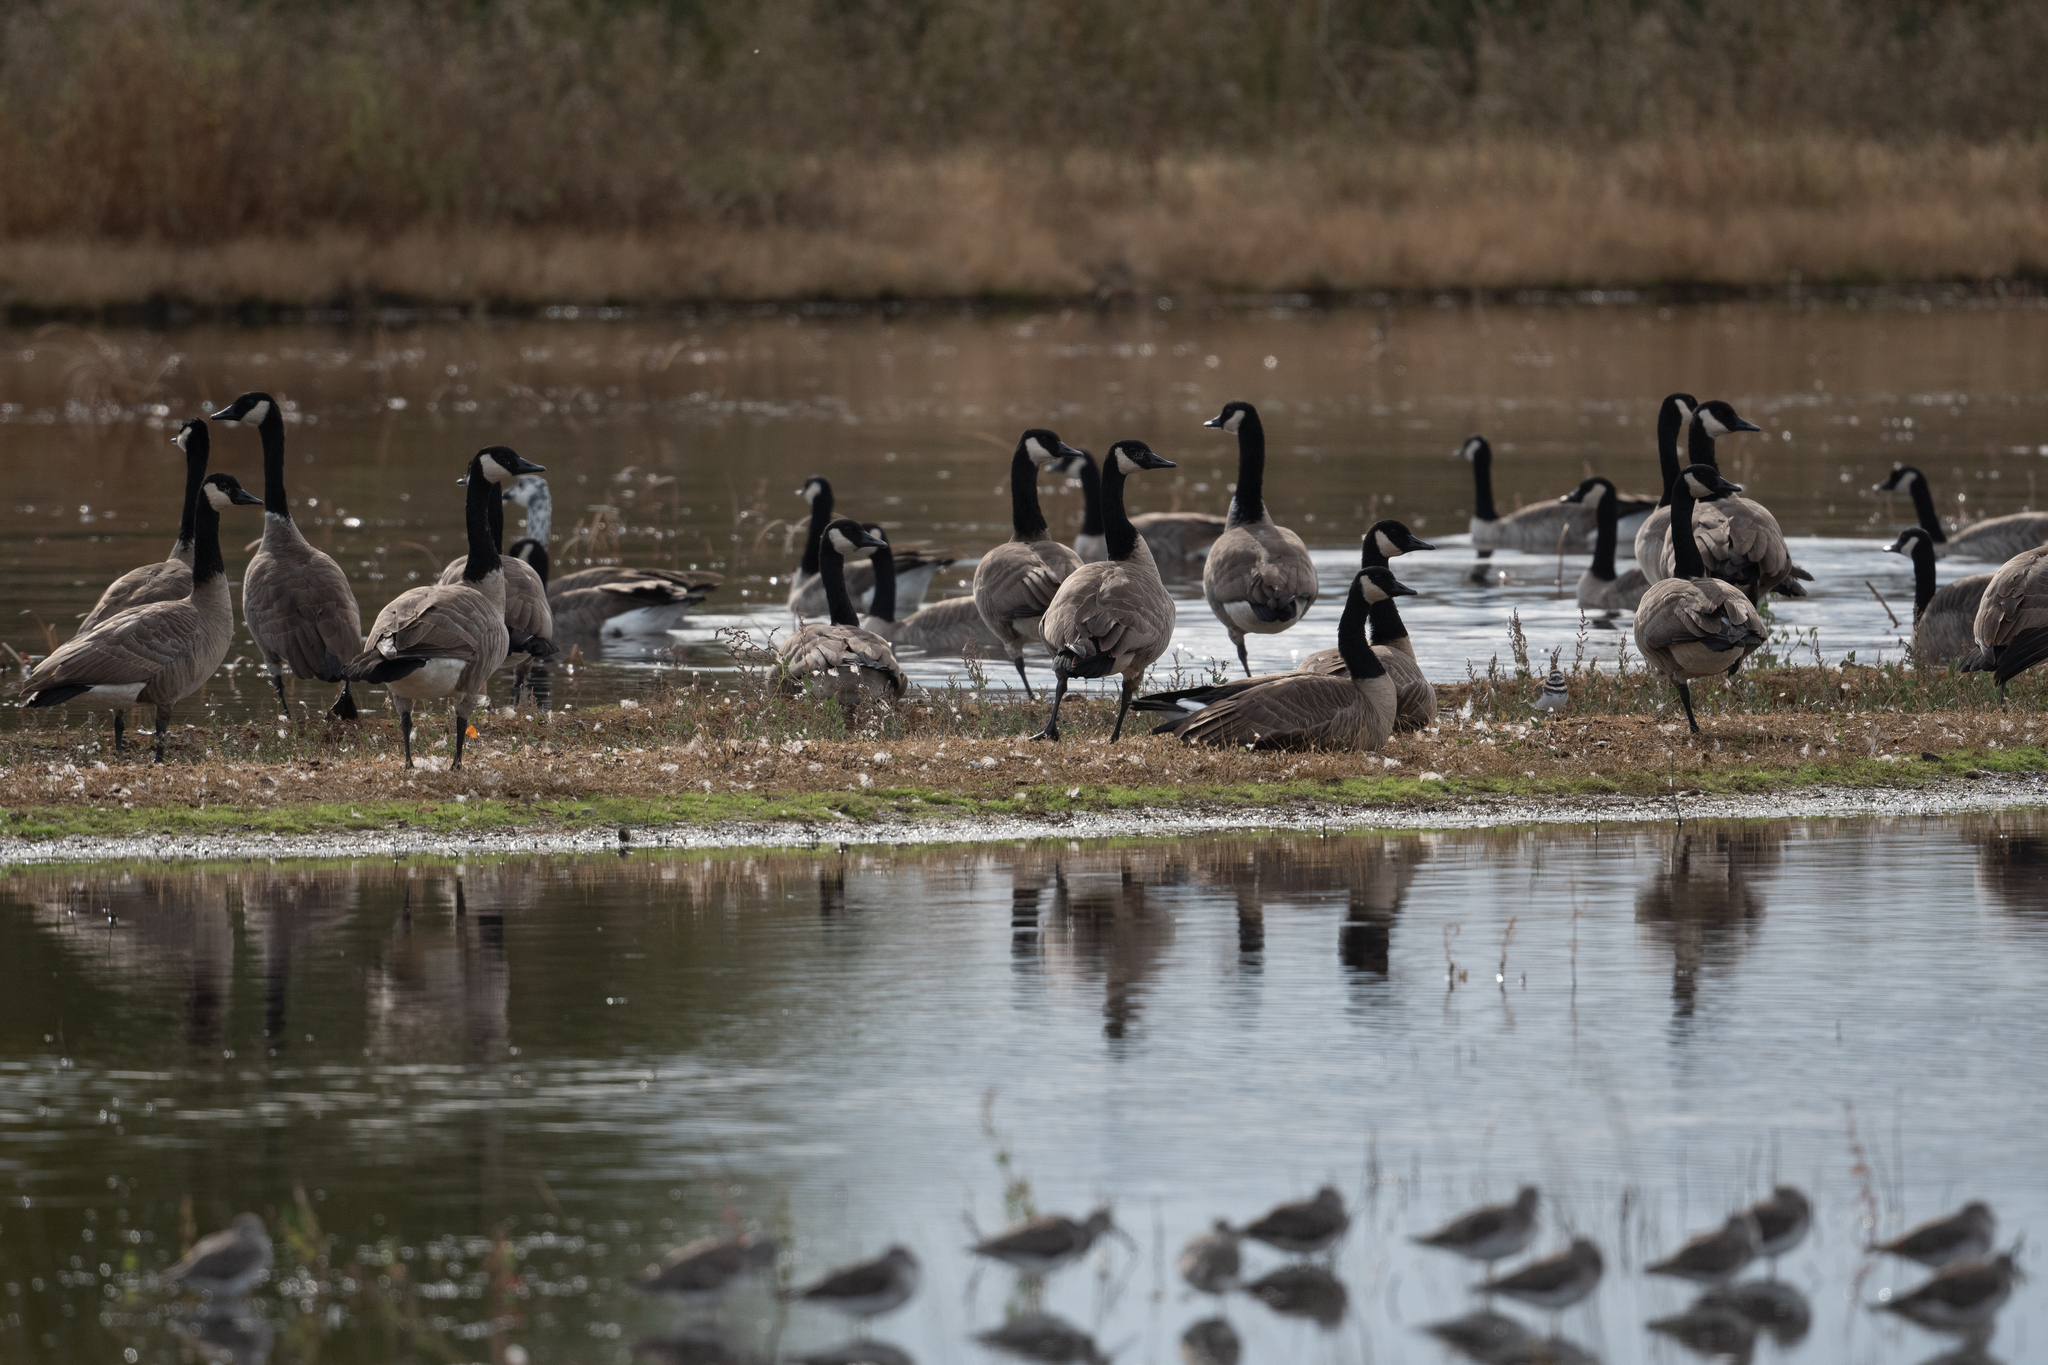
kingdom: Animalia
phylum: Chordata
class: Aves
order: Anseriformes
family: Anatidae
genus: Branta
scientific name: Branta canadensis
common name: Canada goose
